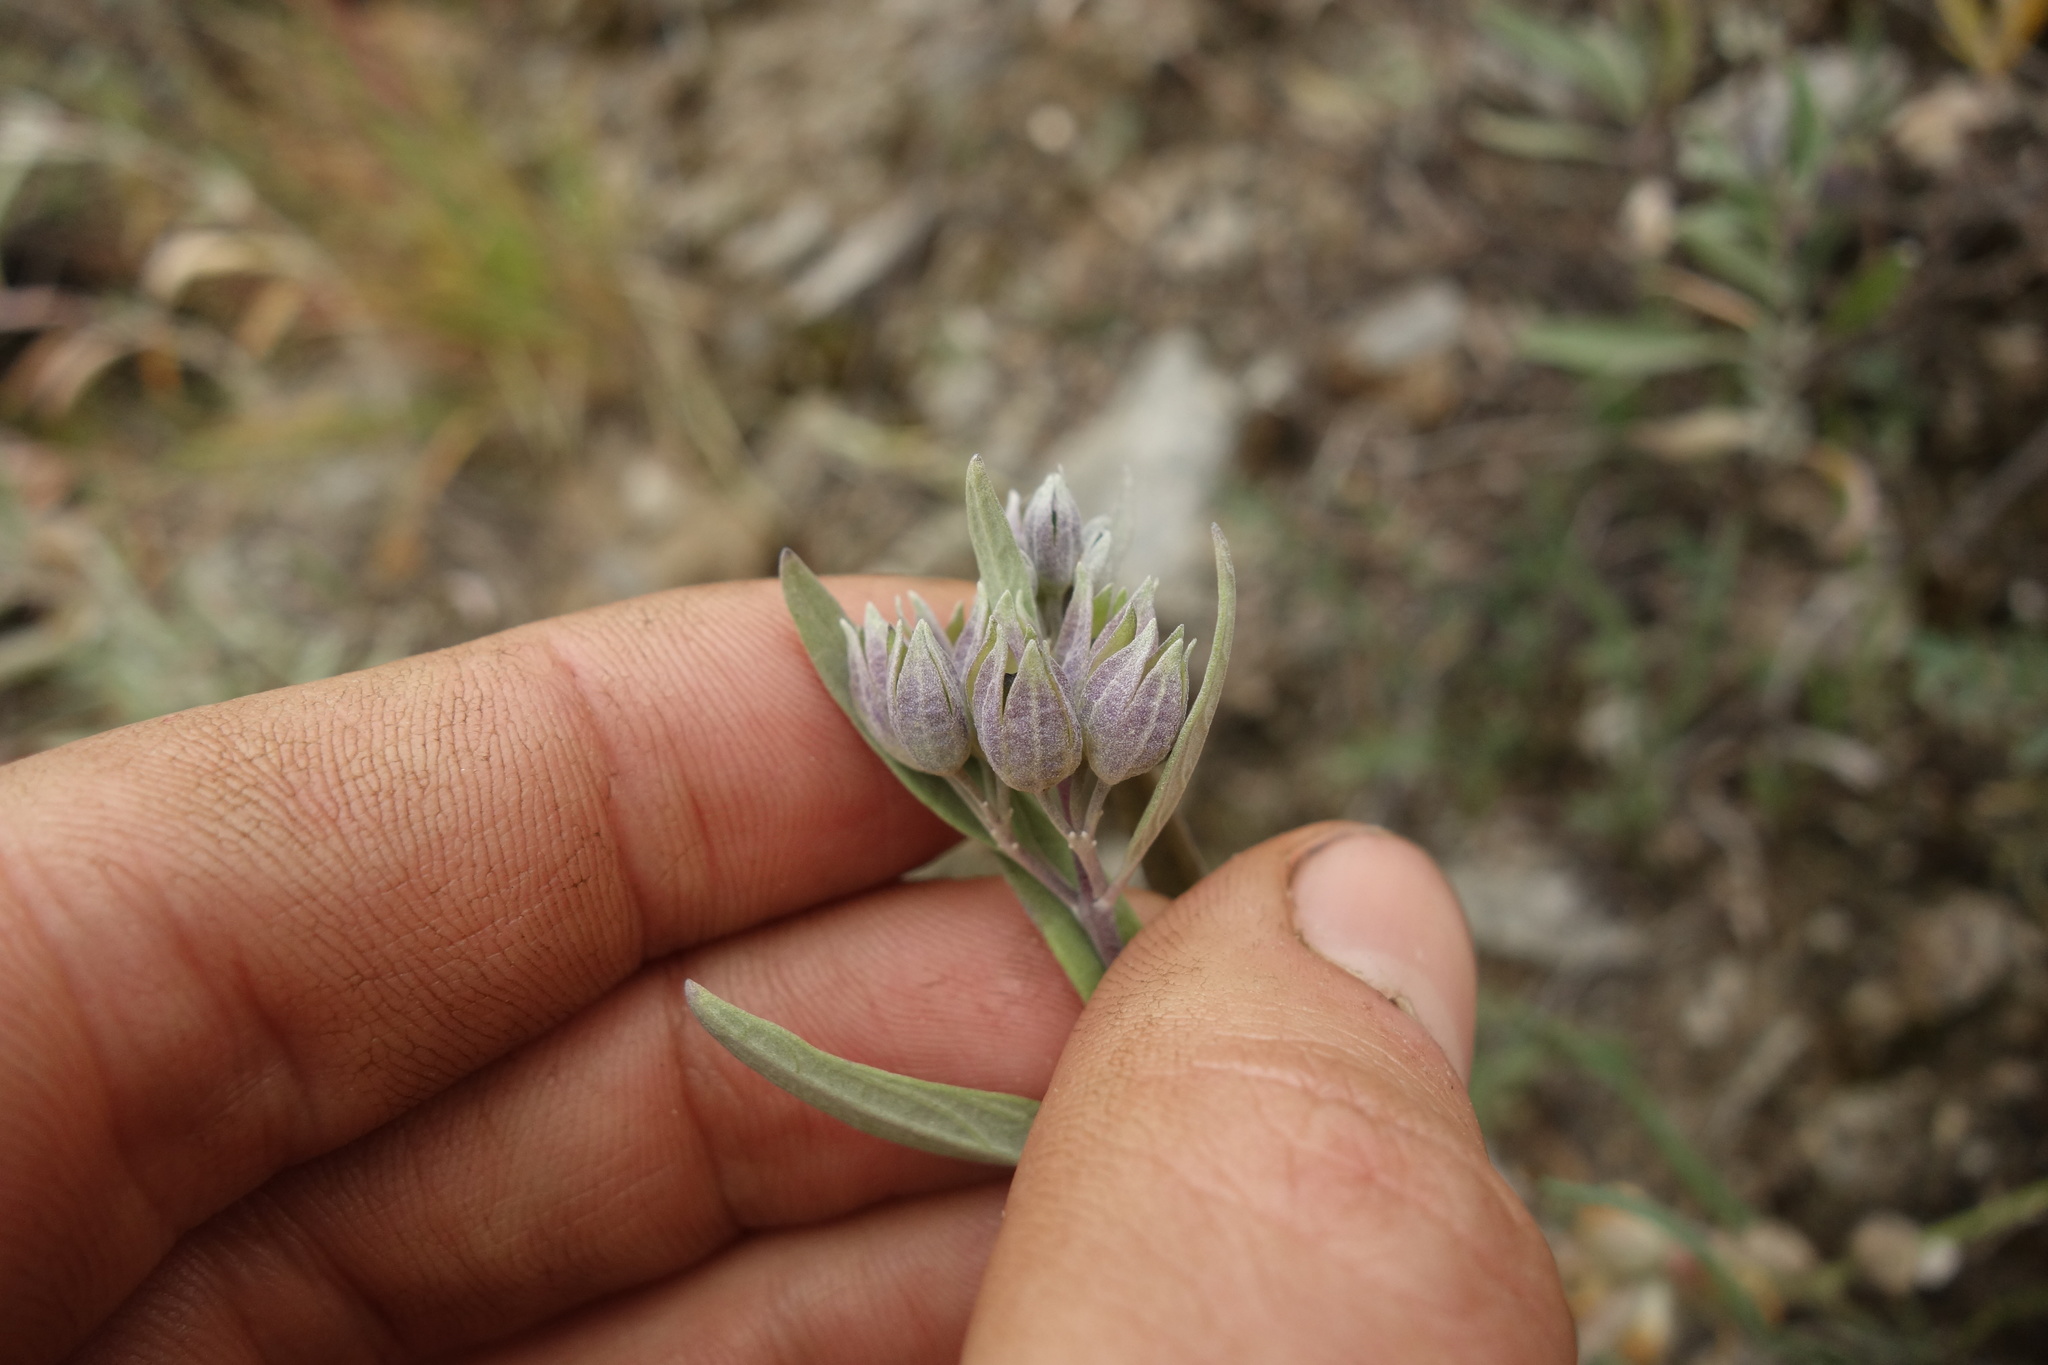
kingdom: Plantae
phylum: Tracheophyta
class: Magnoliopsida
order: Lamiales
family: Lamiaceae
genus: Caryopteris
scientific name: Caryopteris mongholica
